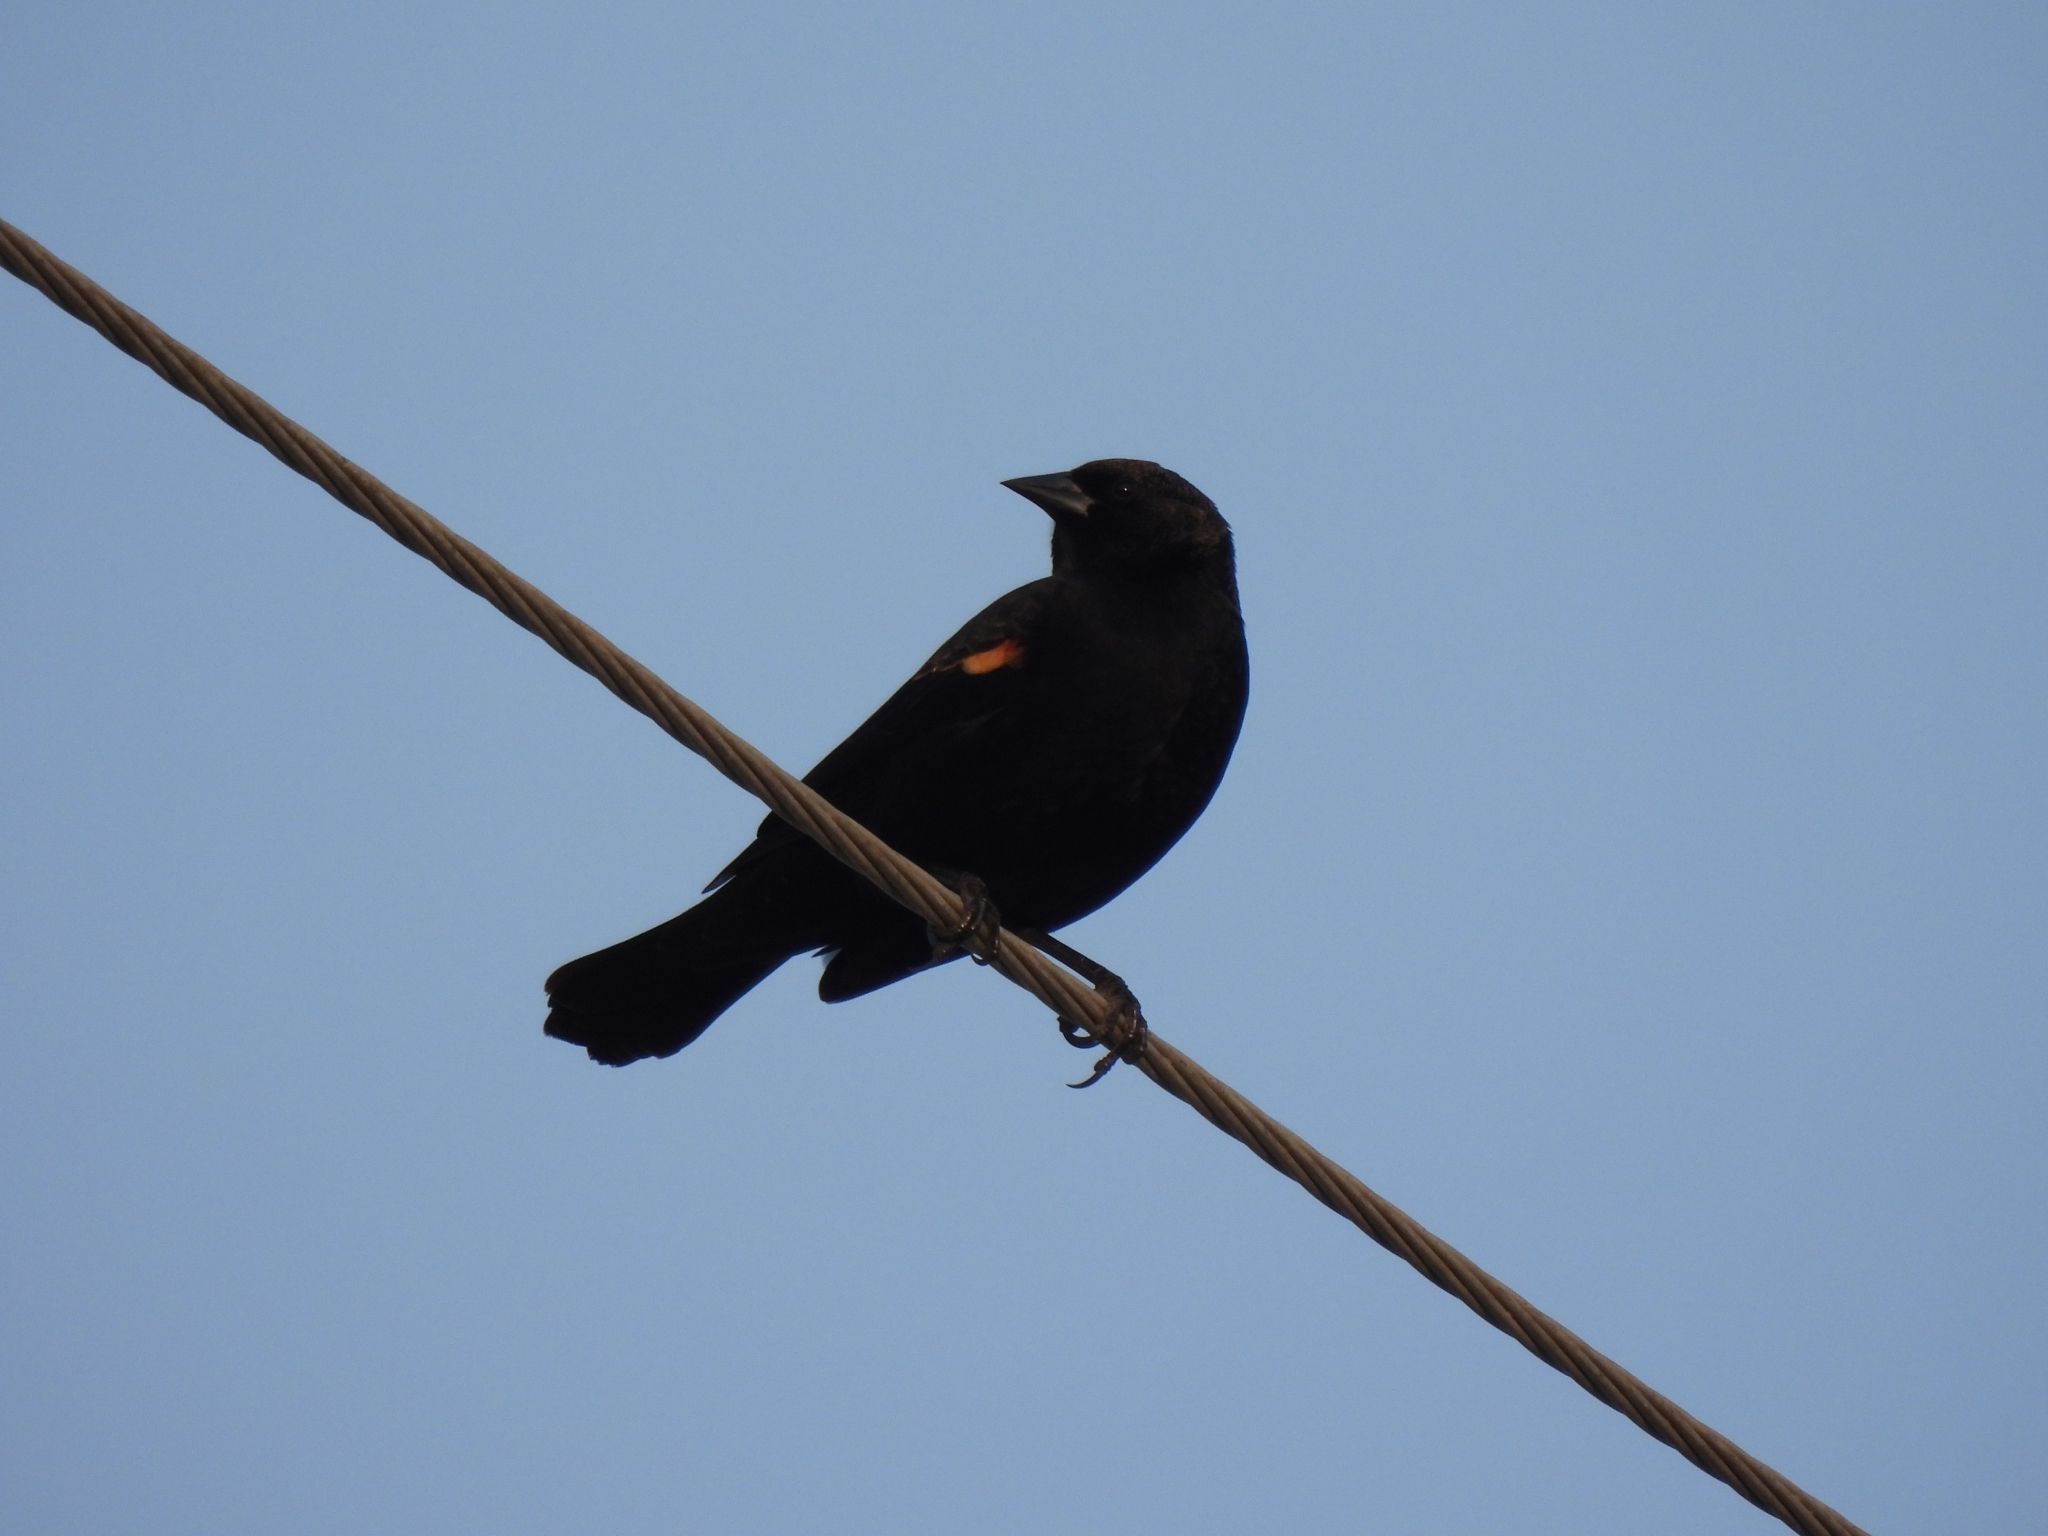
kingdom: Animalia
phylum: Chordata
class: Aves
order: Passeriformes
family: Icteridae
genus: Agelaius
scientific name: Agelaius phoeniceus
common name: Red-winged blackbird
